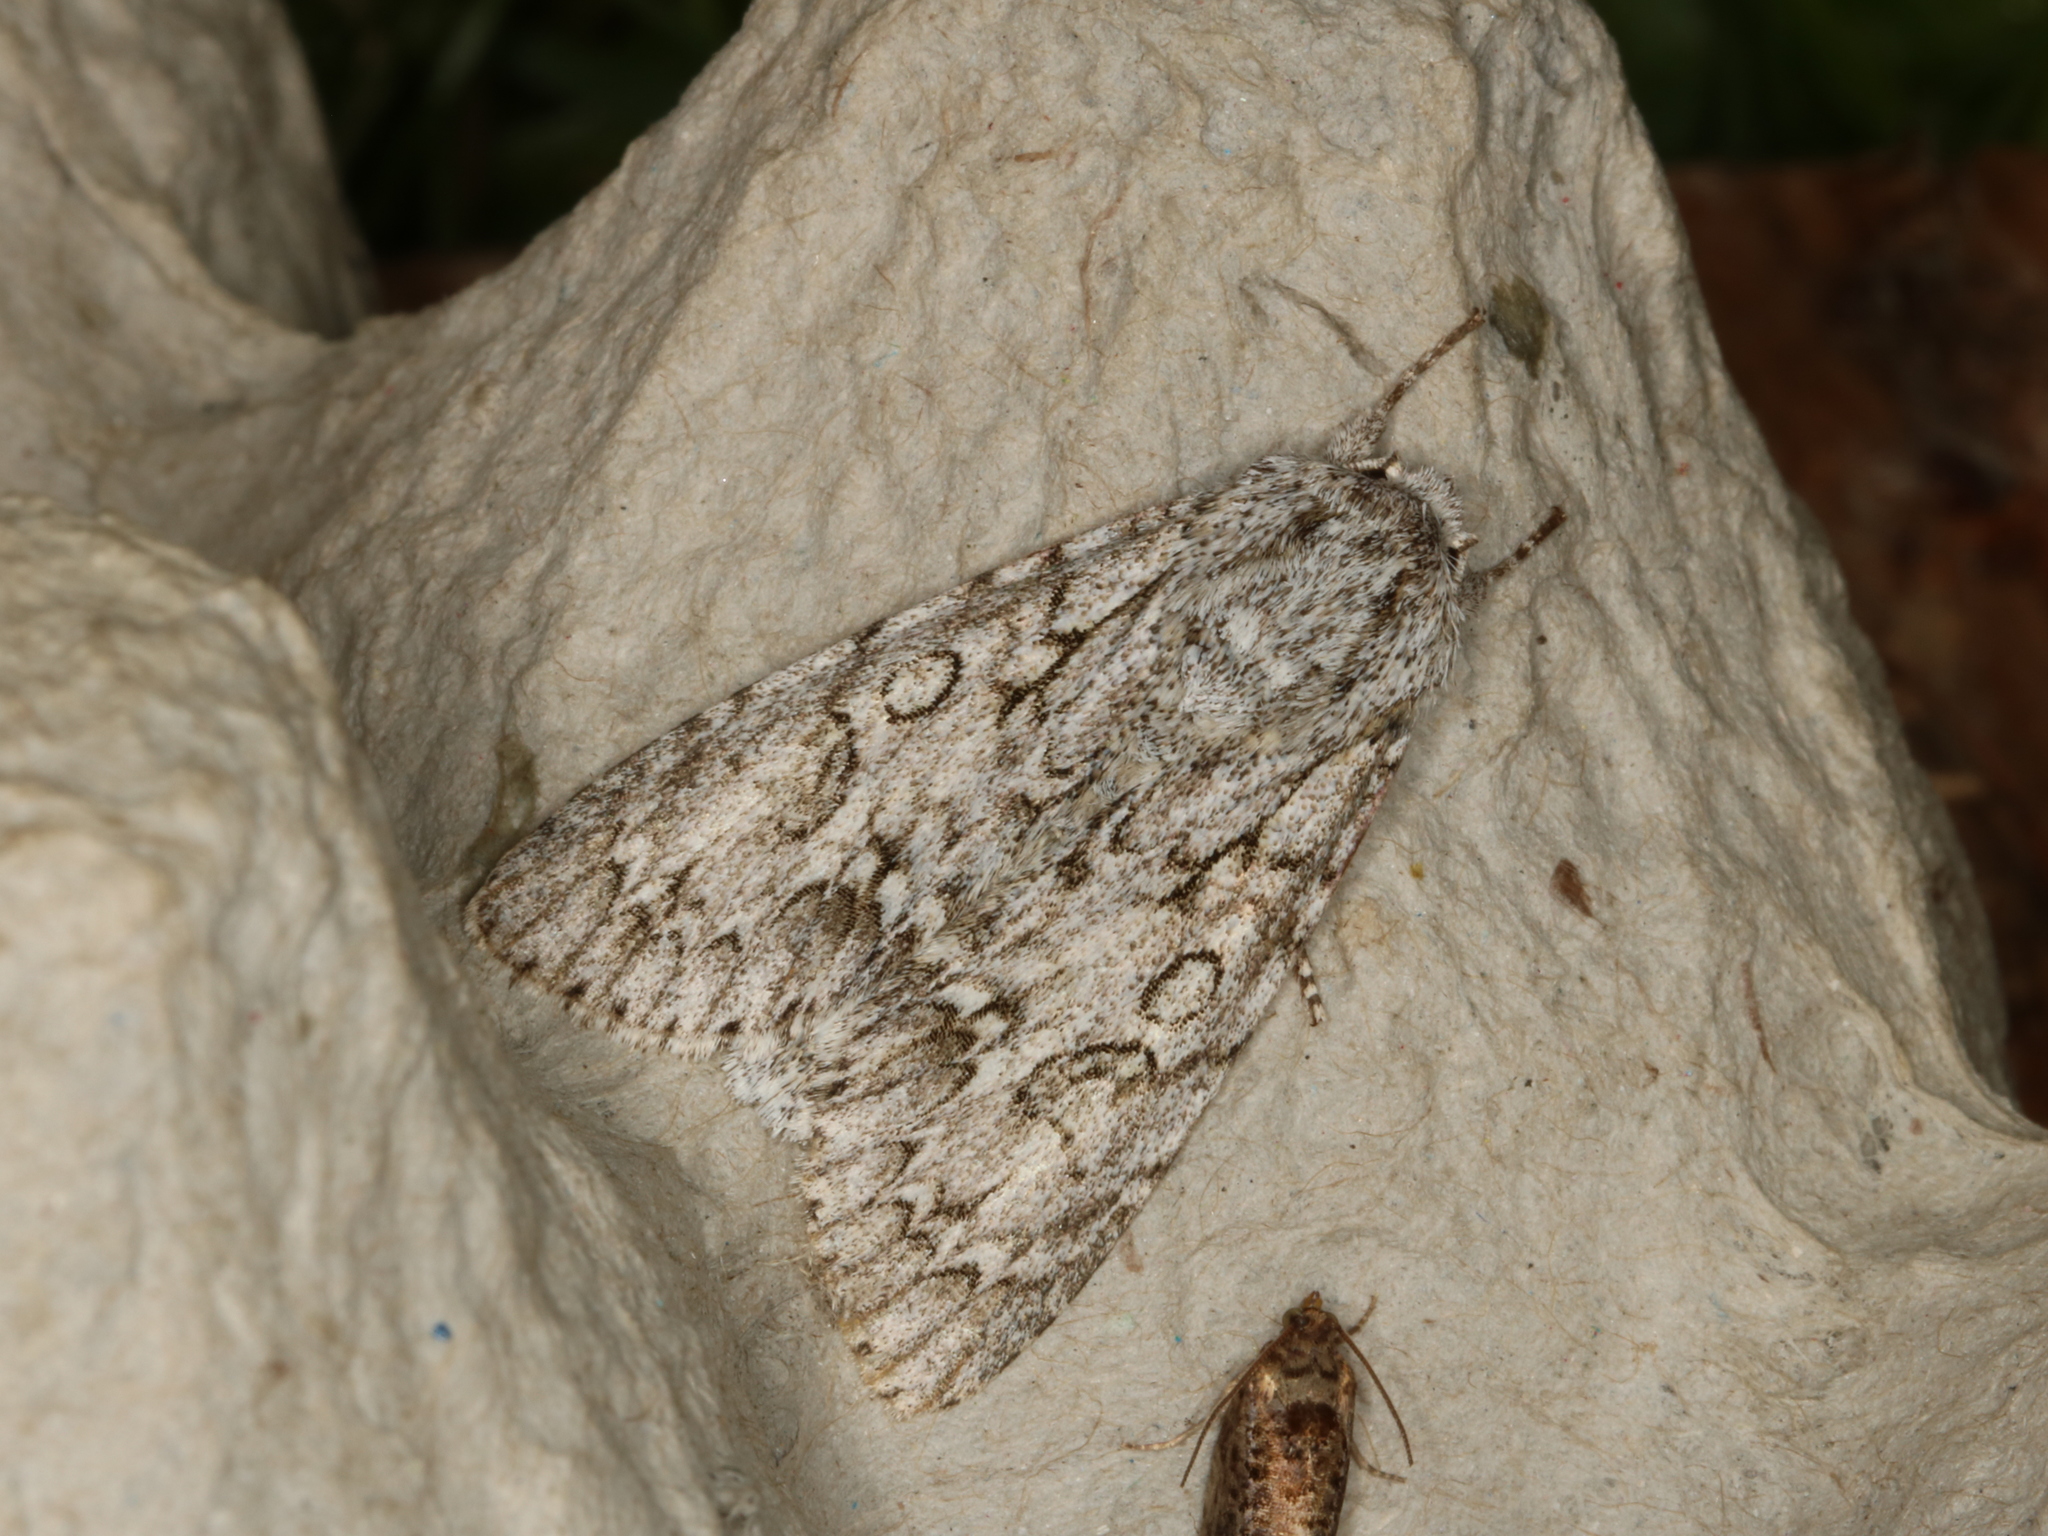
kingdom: Animalia
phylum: Arthropoda
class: Insecta
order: Lepidoptera
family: Noctuidae
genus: Acronicta
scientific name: Acronicta aceris
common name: Sycamore
